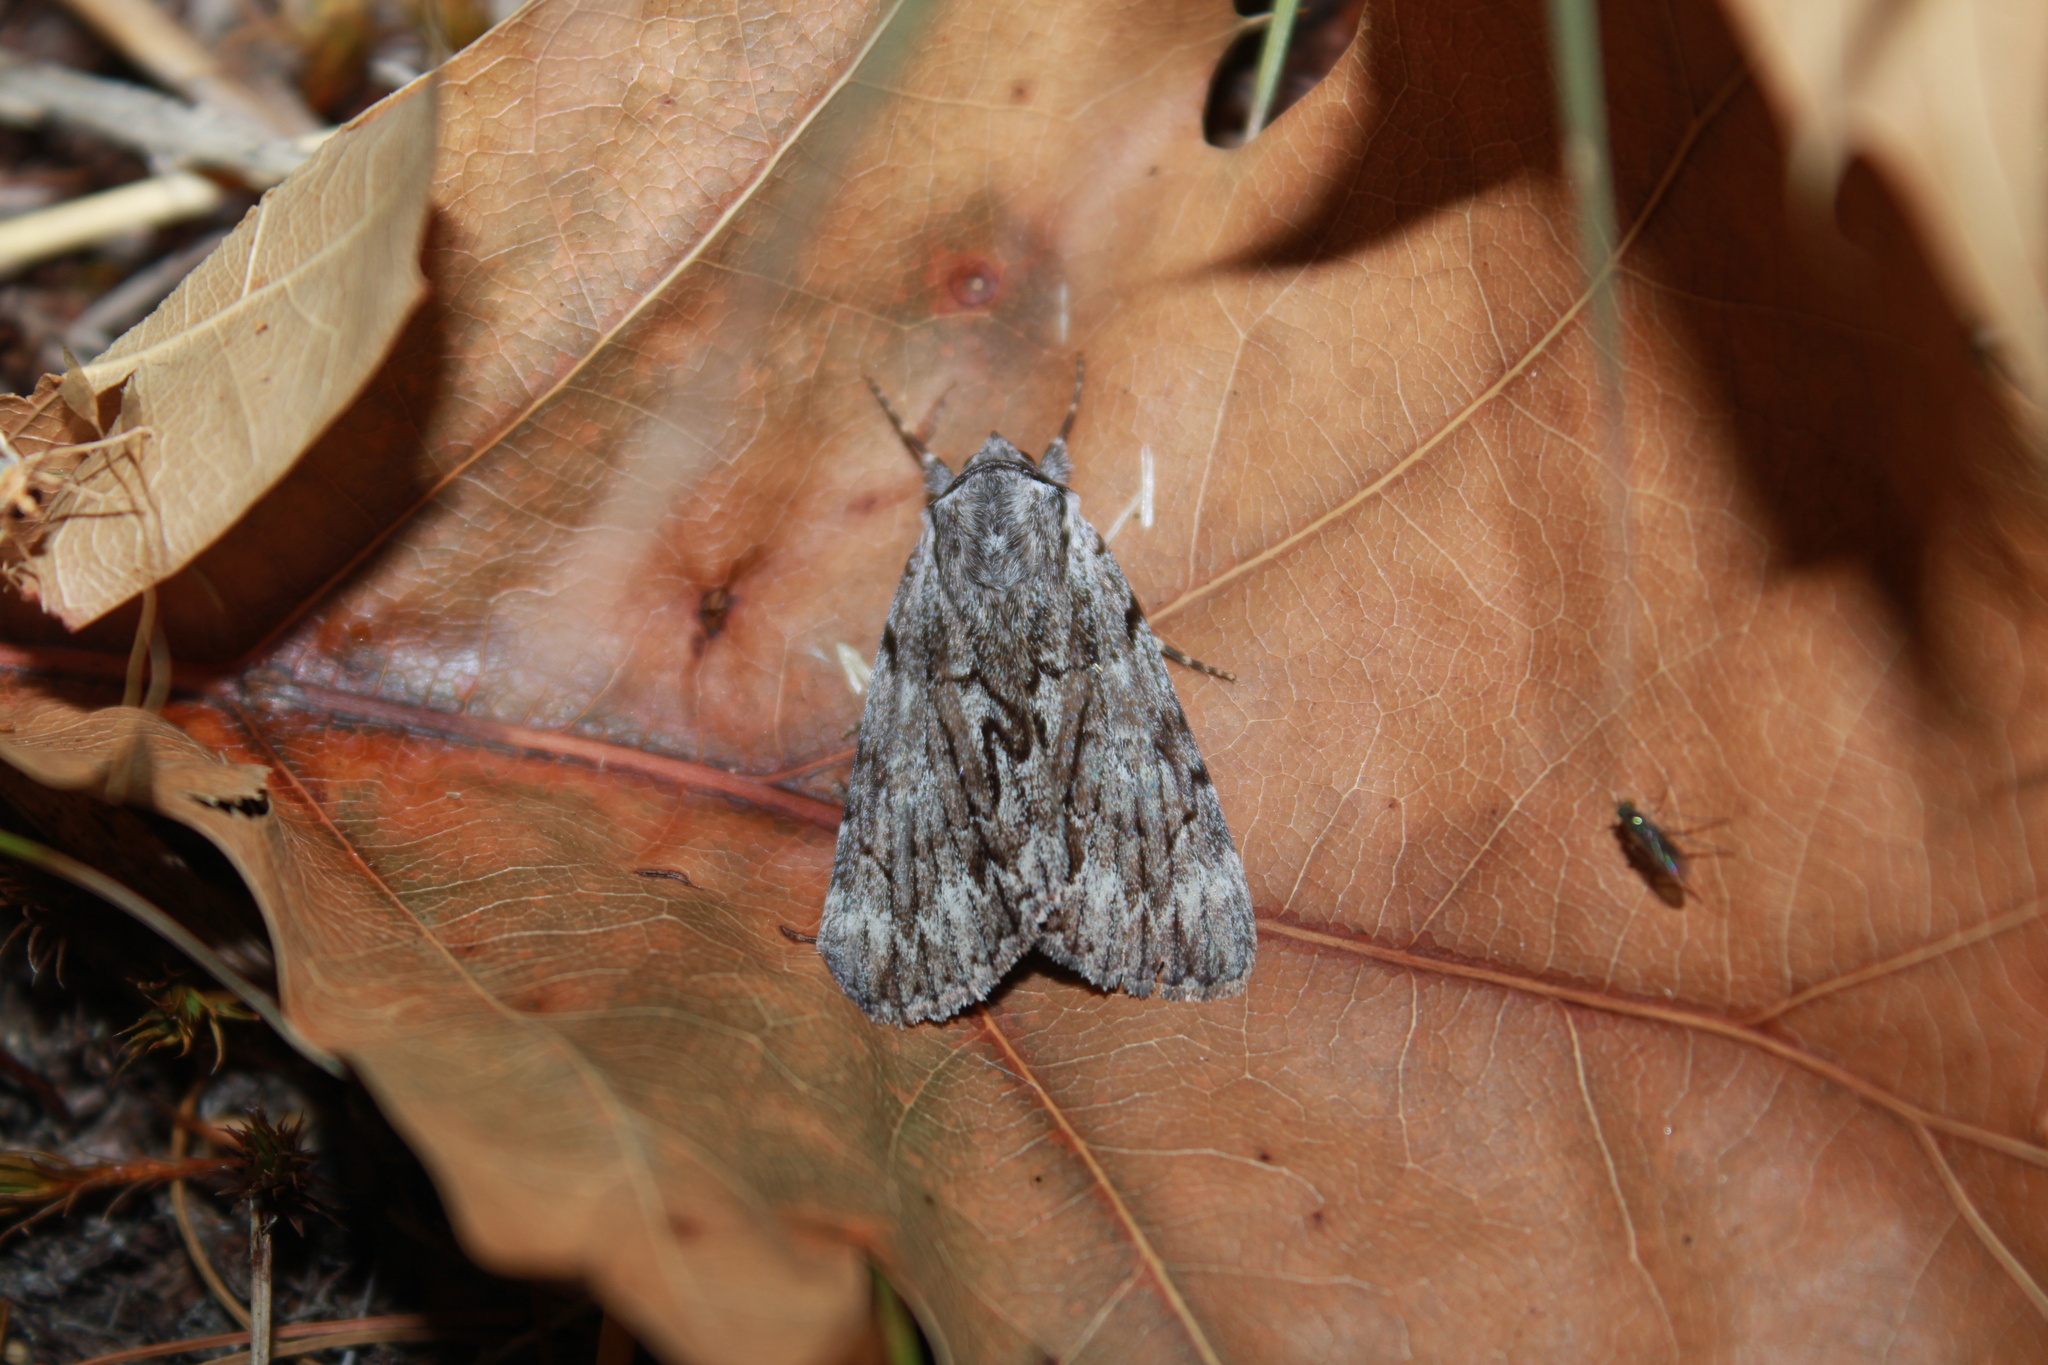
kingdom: Animalia
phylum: Arthropoda
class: Insecta
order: Lepidoptera
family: Erebidae
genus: Catocala
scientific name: Catocala sordida
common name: Sordid underwing
